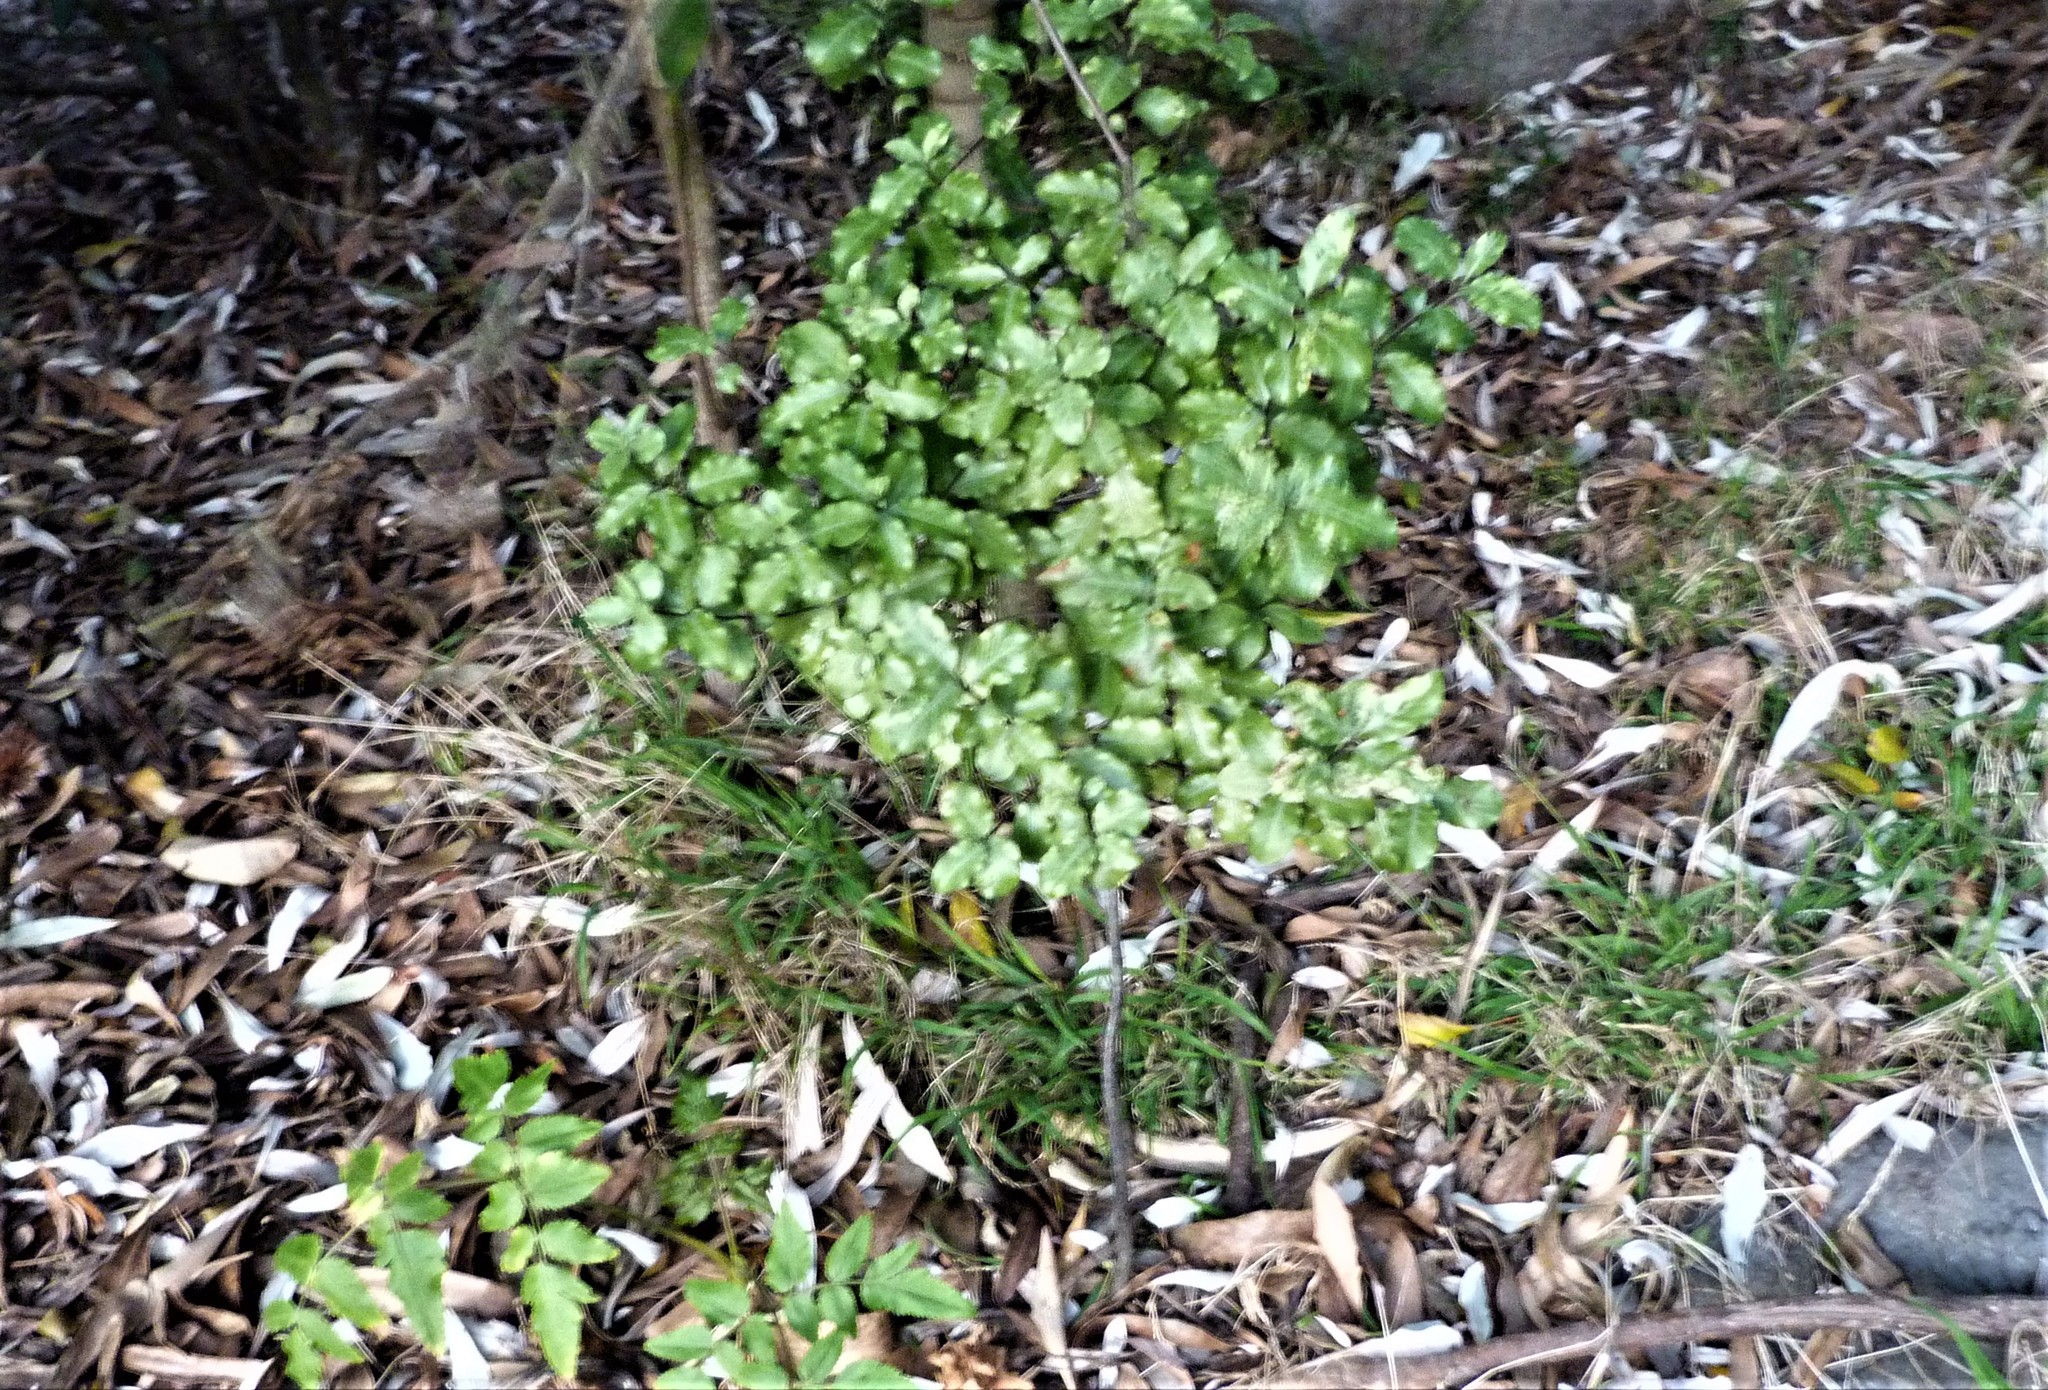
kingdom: Plantae
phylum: Tracheophyta
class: Magnoliopsida
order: Apiales
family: Pittosporaceae
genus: Pittosporum
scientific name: Pittosporum tenuifolium
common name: Kohuhu
